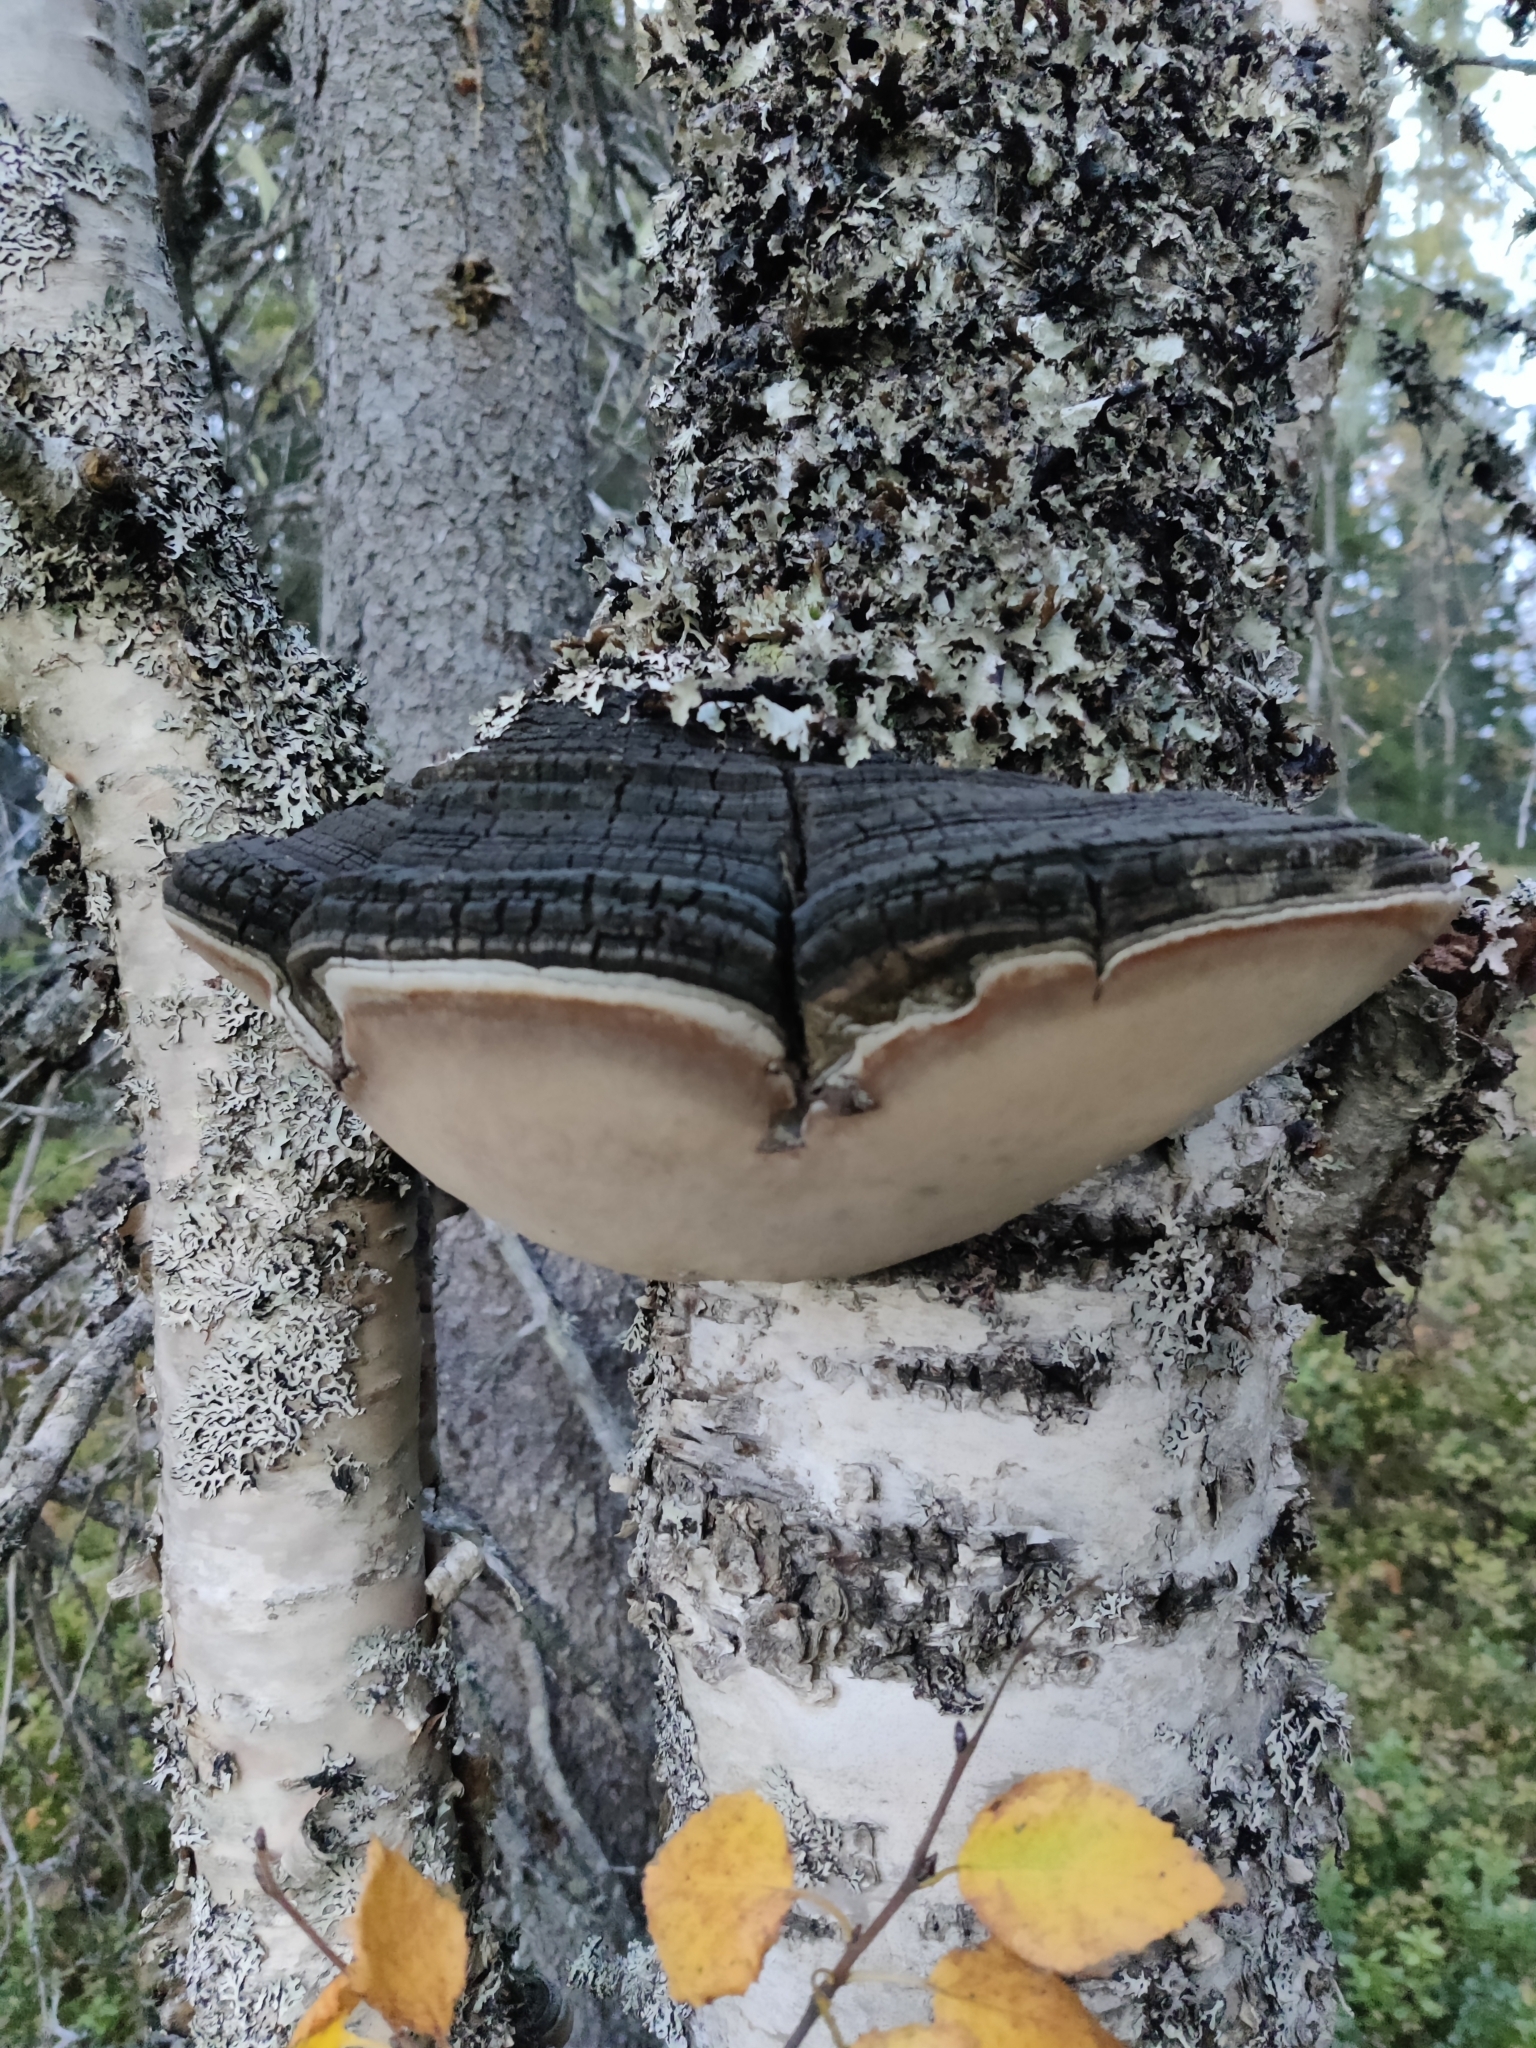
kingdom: Fungi
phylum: Basidiomycota
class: Agaricomycetes
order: Hymenochaetales
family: Hymenochaetaceae
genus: Phellinus
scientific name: Phellinus igniarius
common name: Willow bracket
